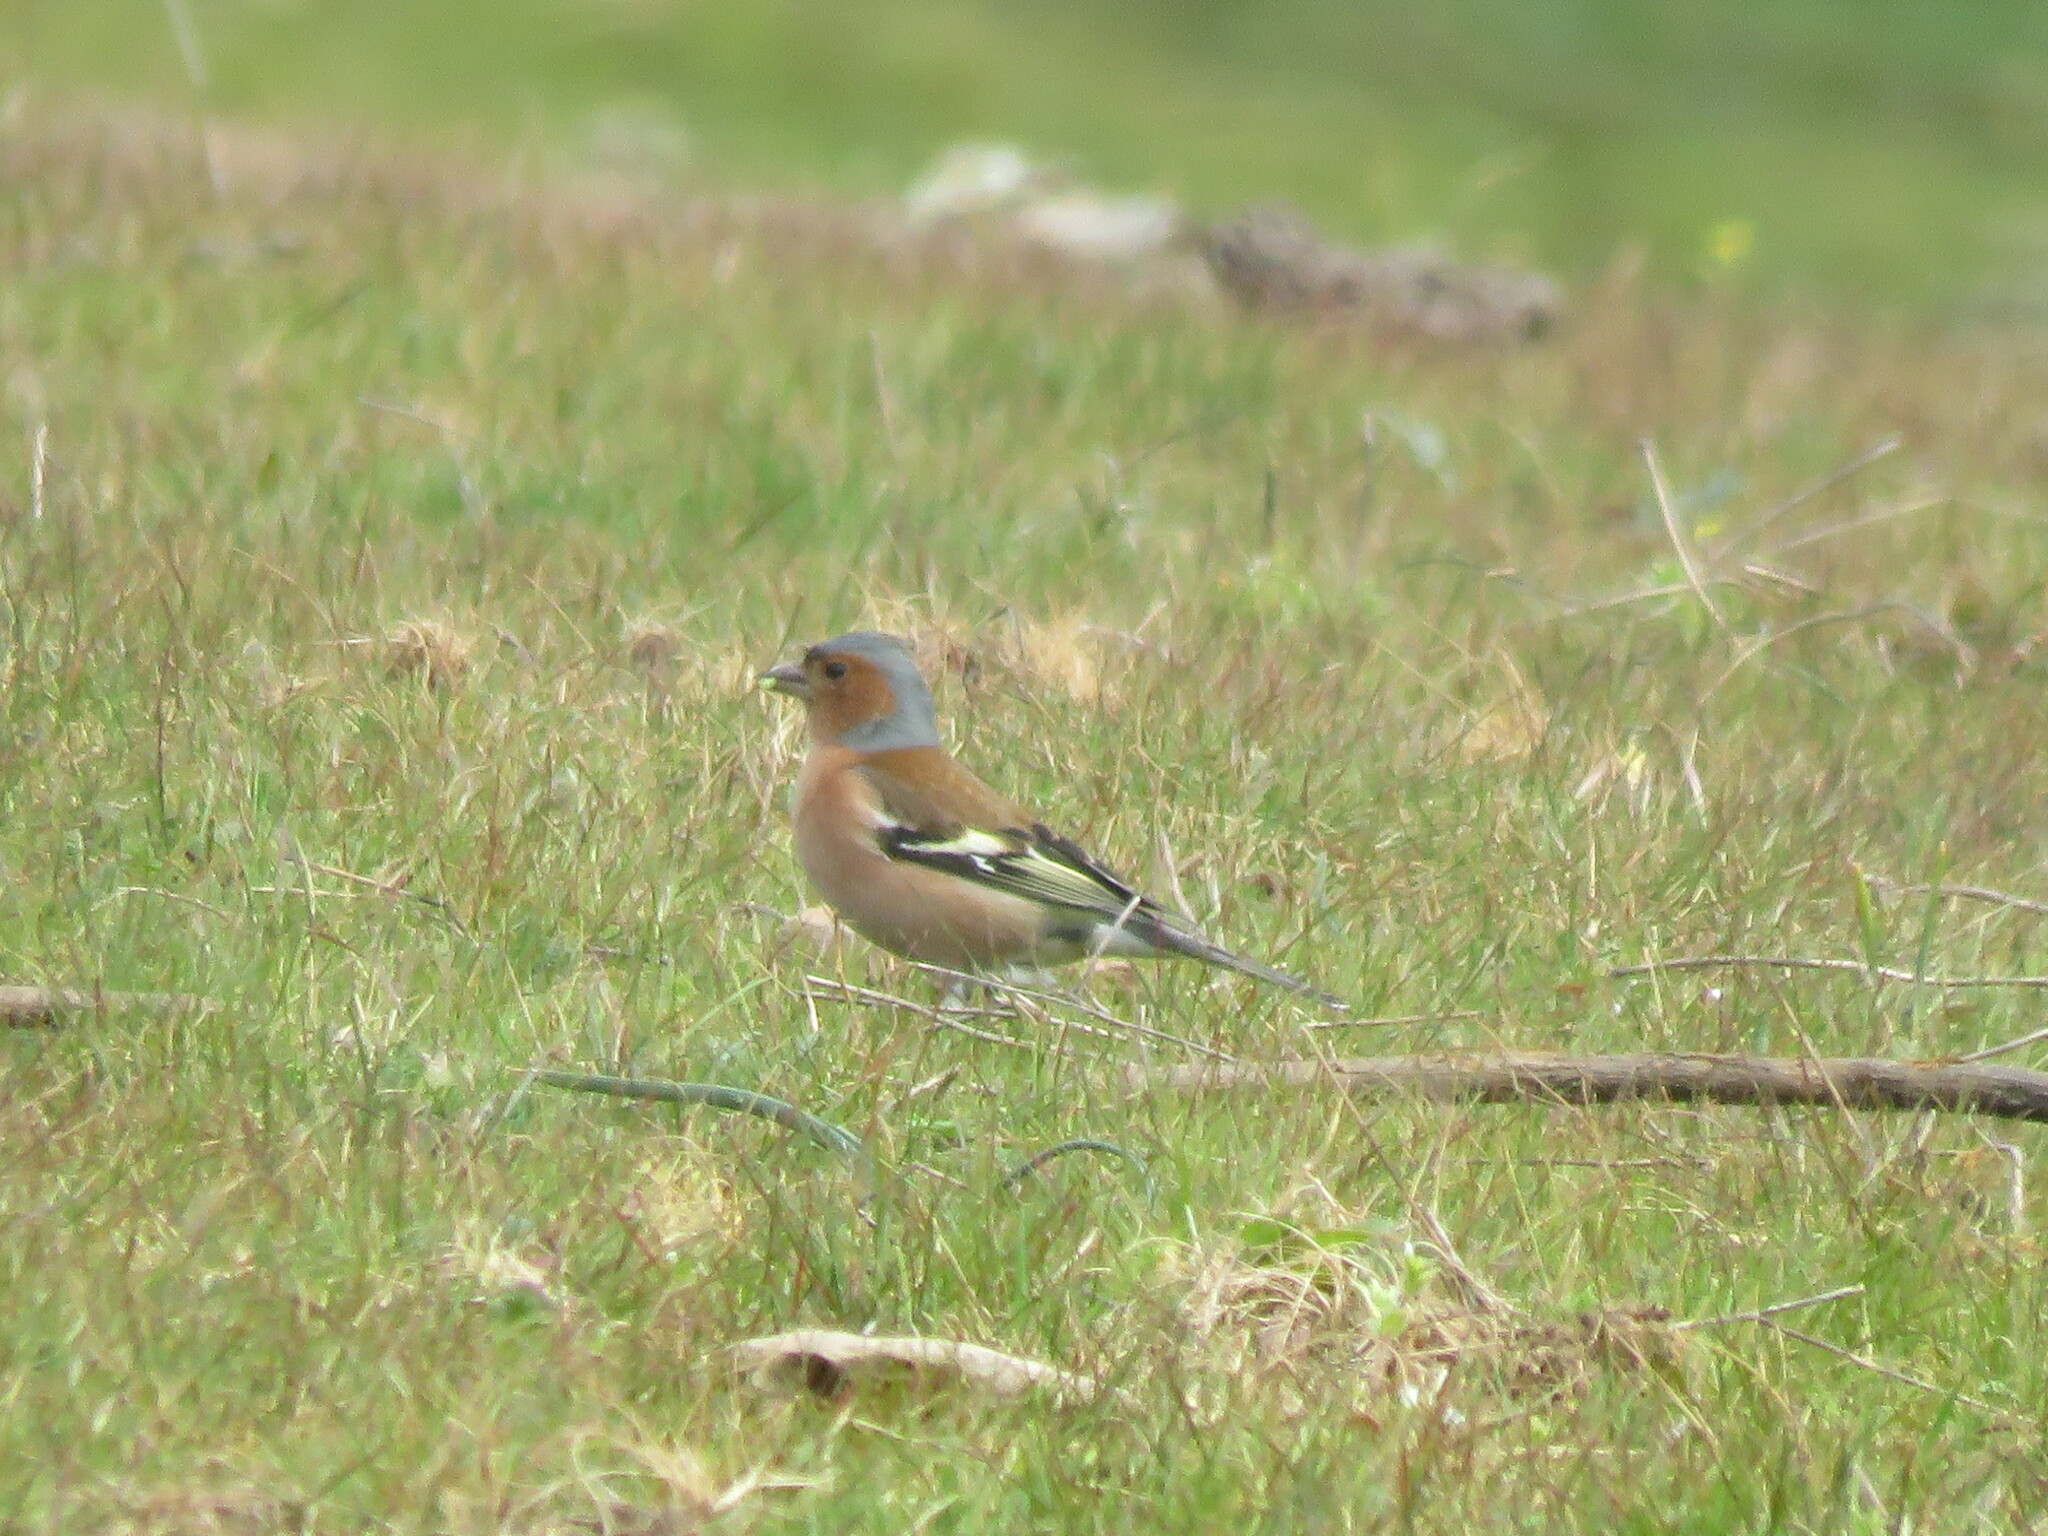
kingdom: Animalia
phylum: Chordata
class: Aves
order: Passeriformes
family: Fringillidae
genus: Fringilla
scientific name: Fringilla coelebs
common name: Common chaffinch
